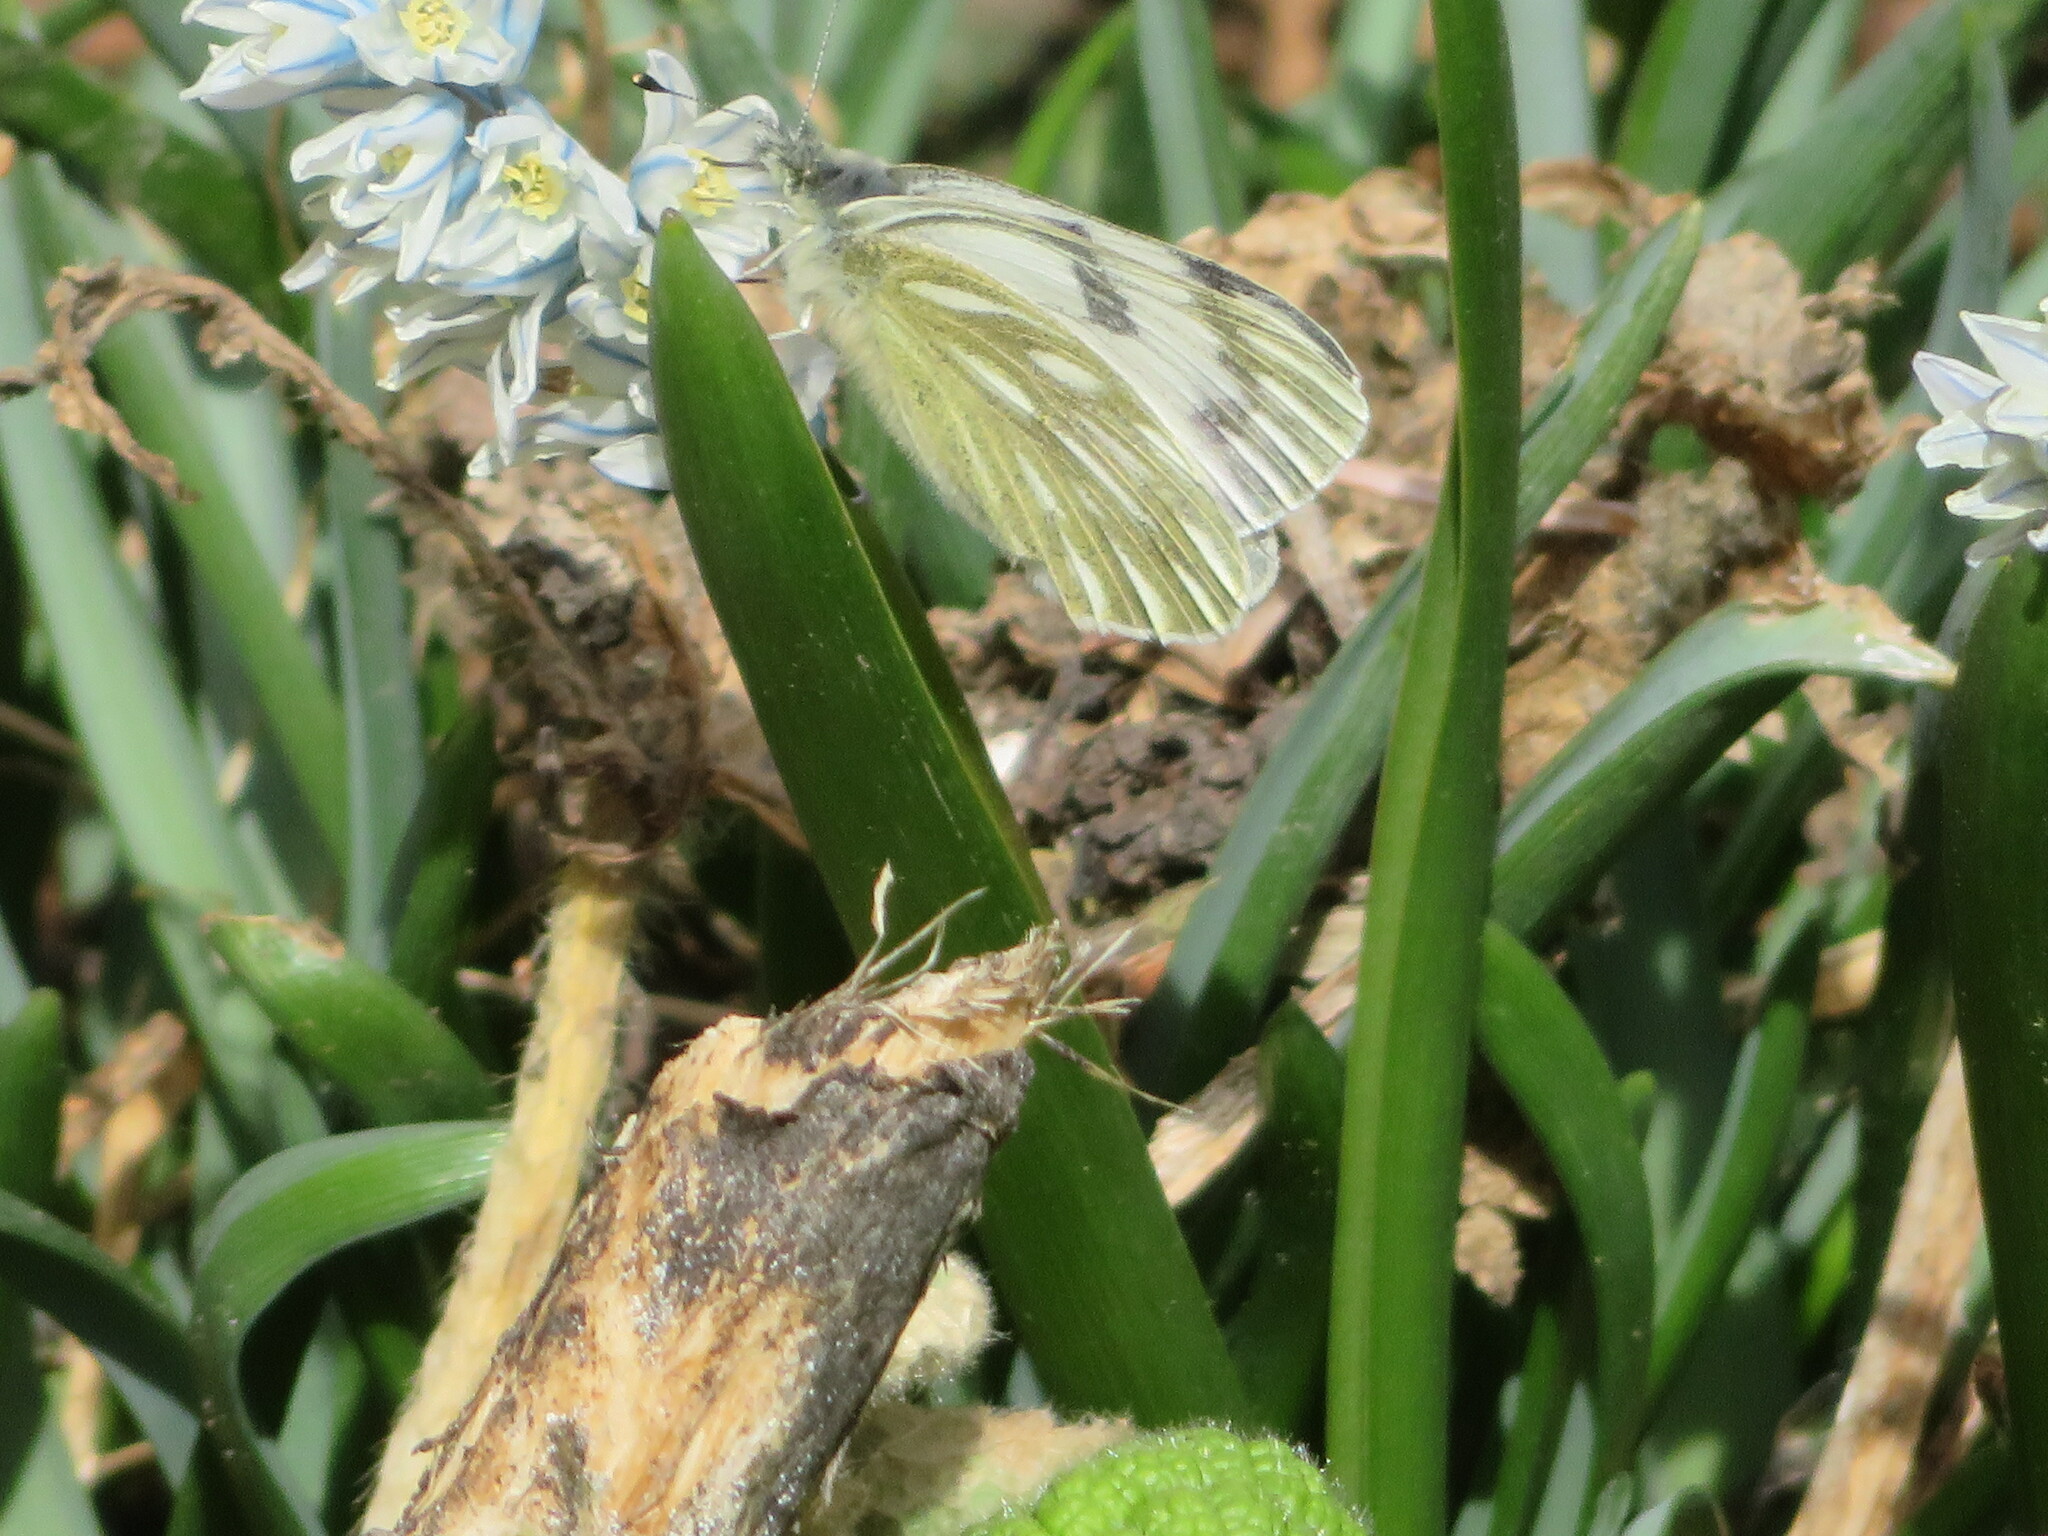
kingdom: Animalia
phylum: Arthropoda
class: Insecta
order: Lepidoptera
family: Pieridae
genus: Pontia
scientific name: Pontia occidentalis
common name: Western white
